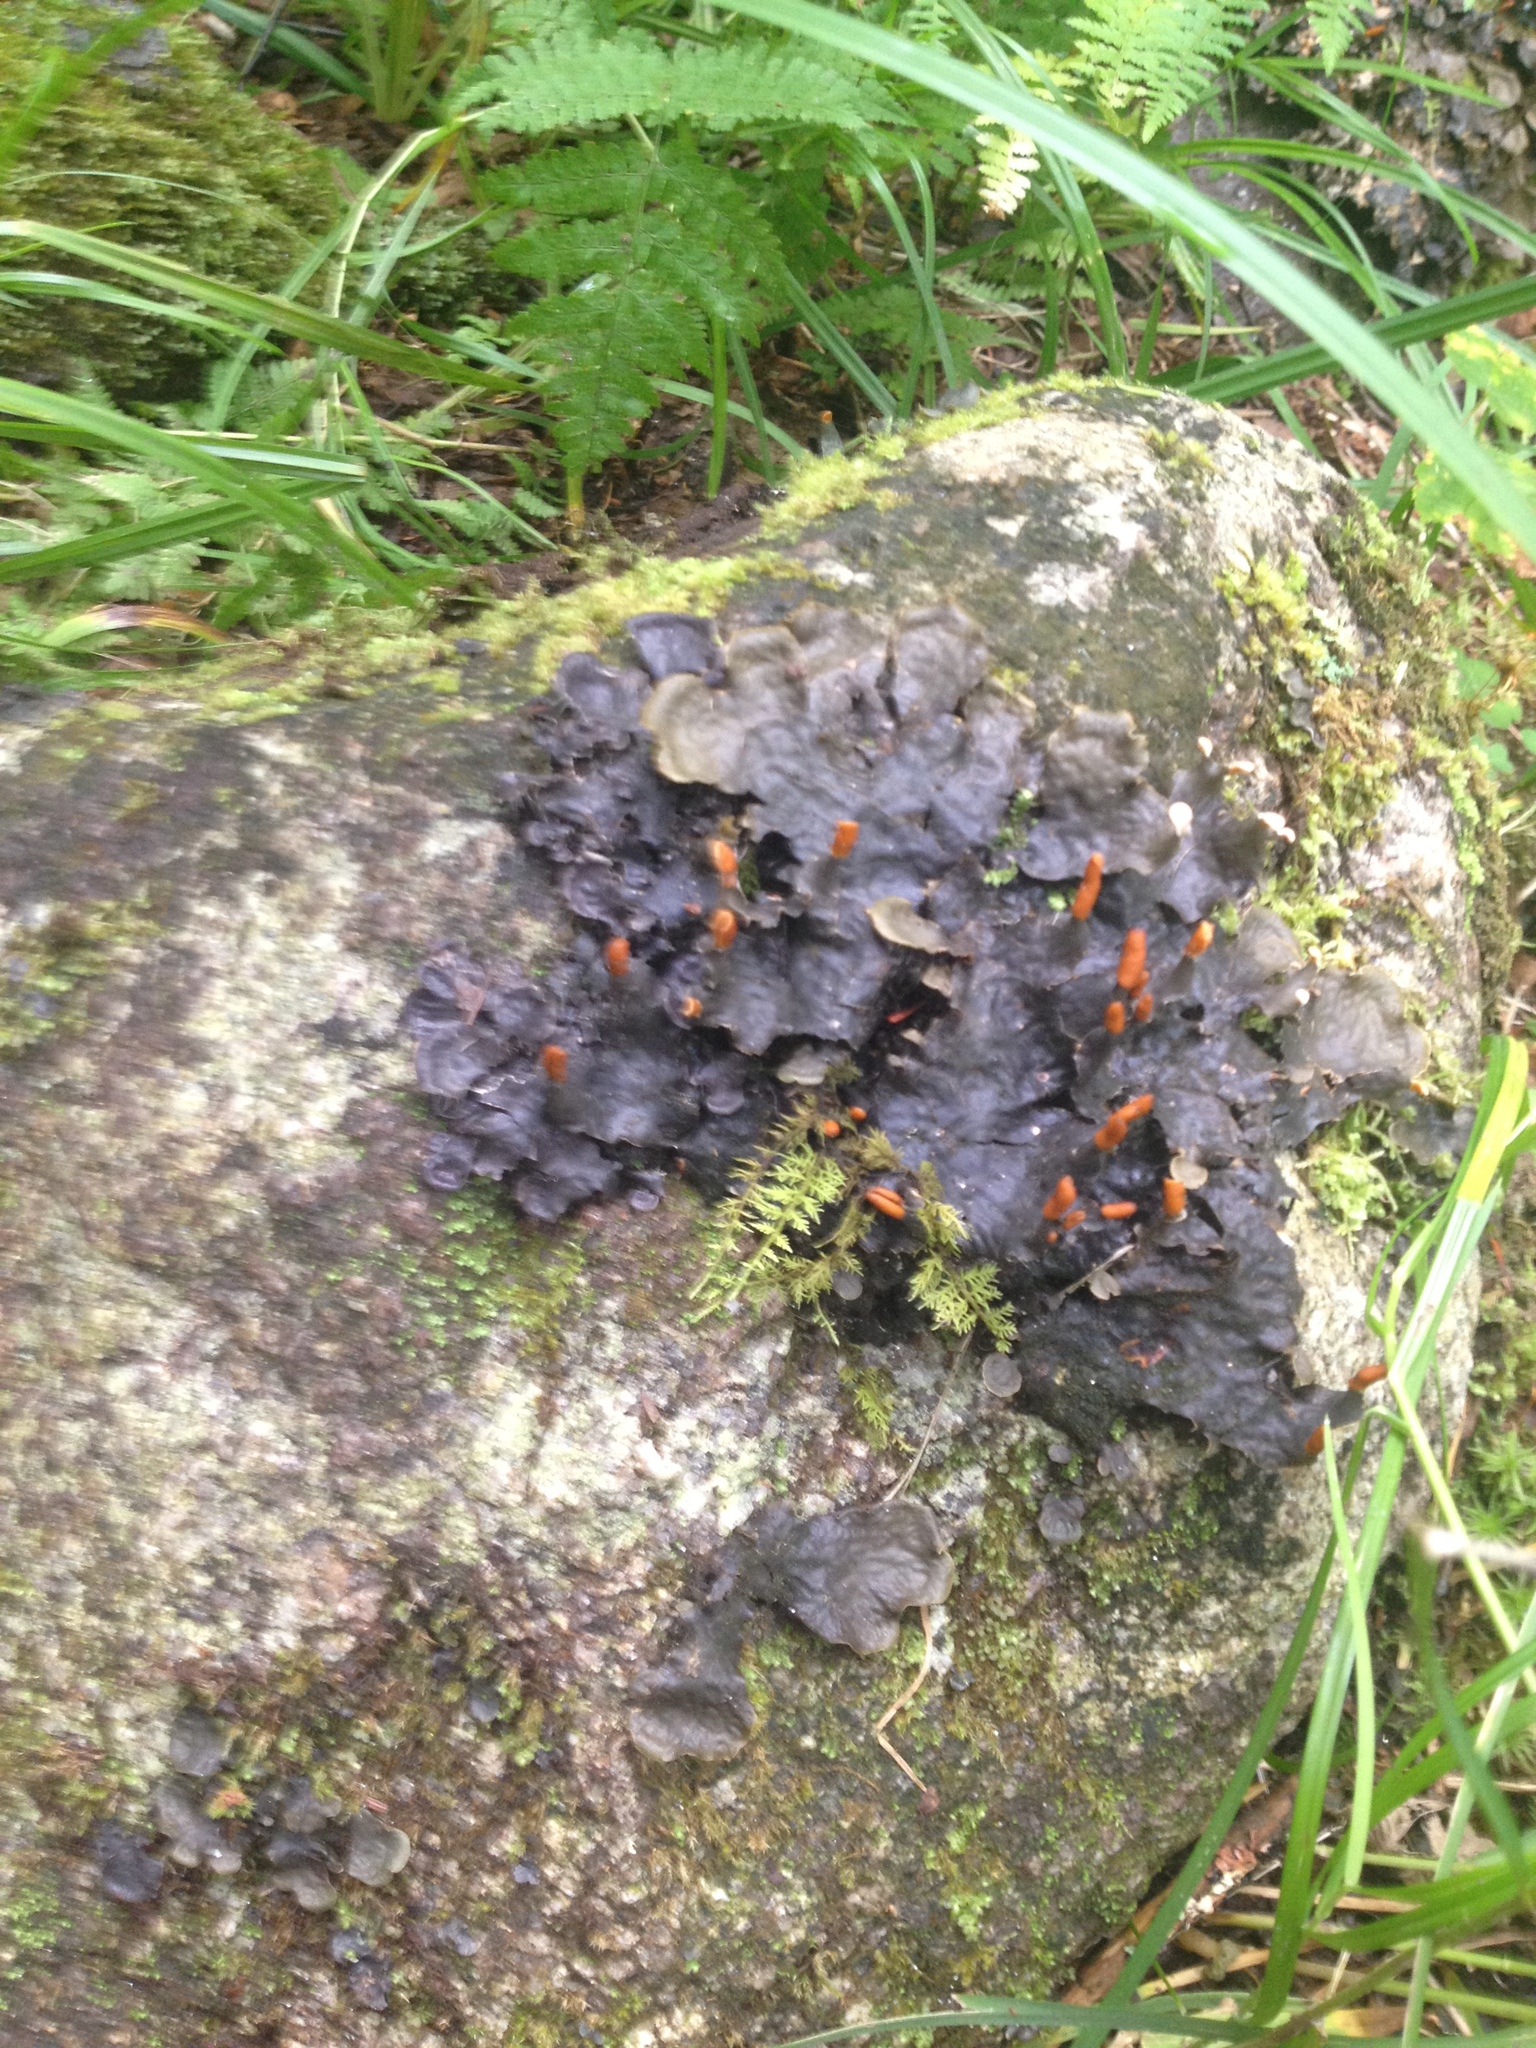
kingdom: Fungi
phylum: Ascomycota
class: Lecanoromycetes
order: Peltigerales
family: Peltigeraceae
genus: Peltigera
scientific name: Peltigera neopolydactyla
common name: Carpet pelt
